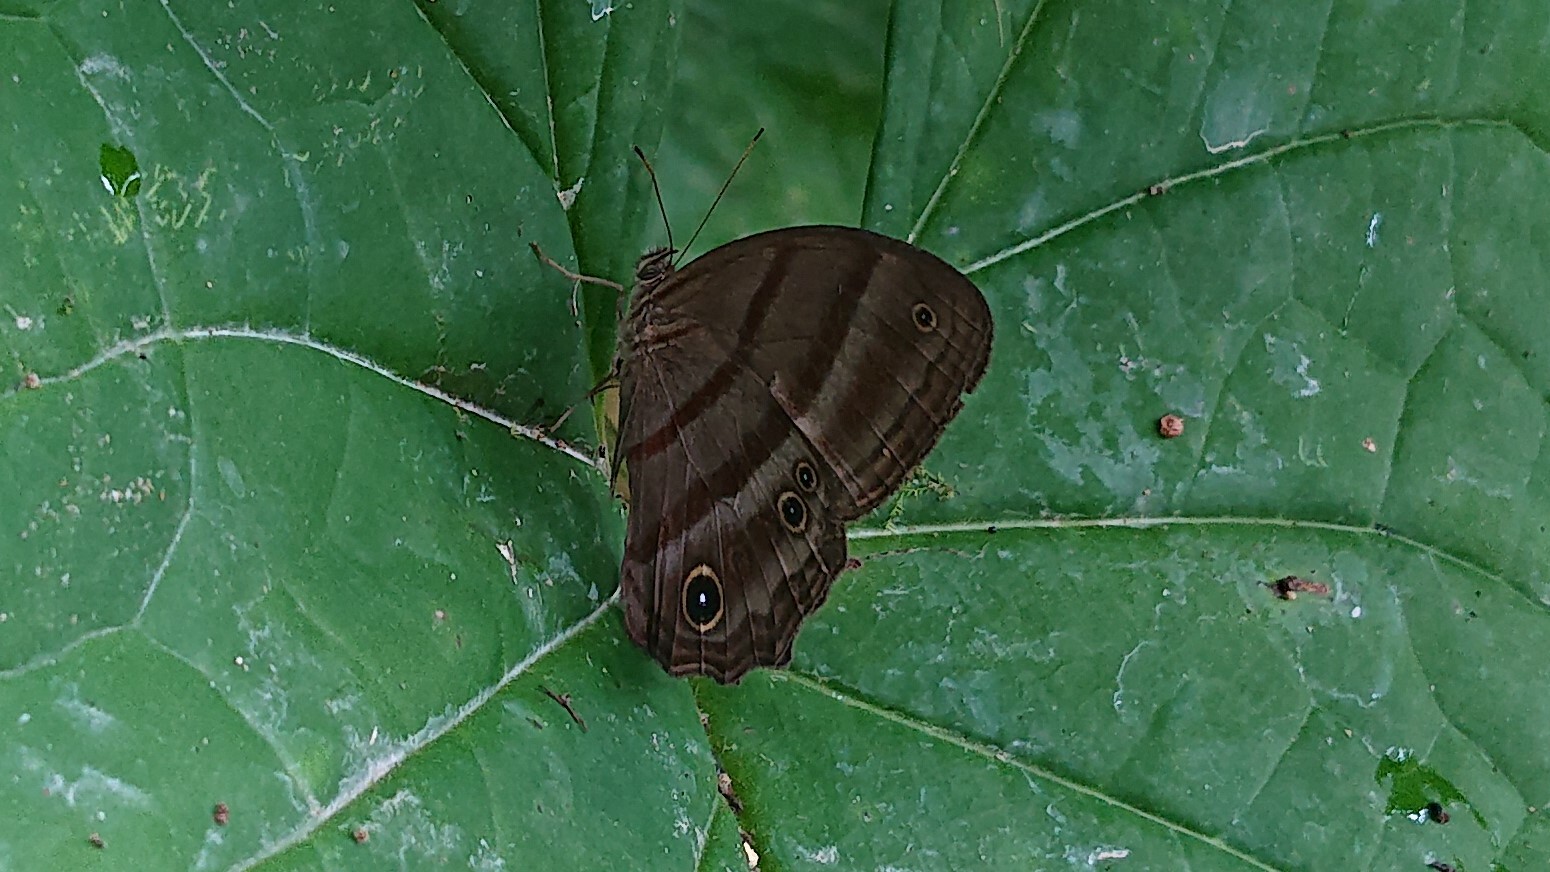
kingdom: Animalia
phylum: Arthropoda
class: Insecta
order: Lepidoptera
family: Nymphalidae
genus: Satyrotaygetis
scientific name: Satyrotaygetis
